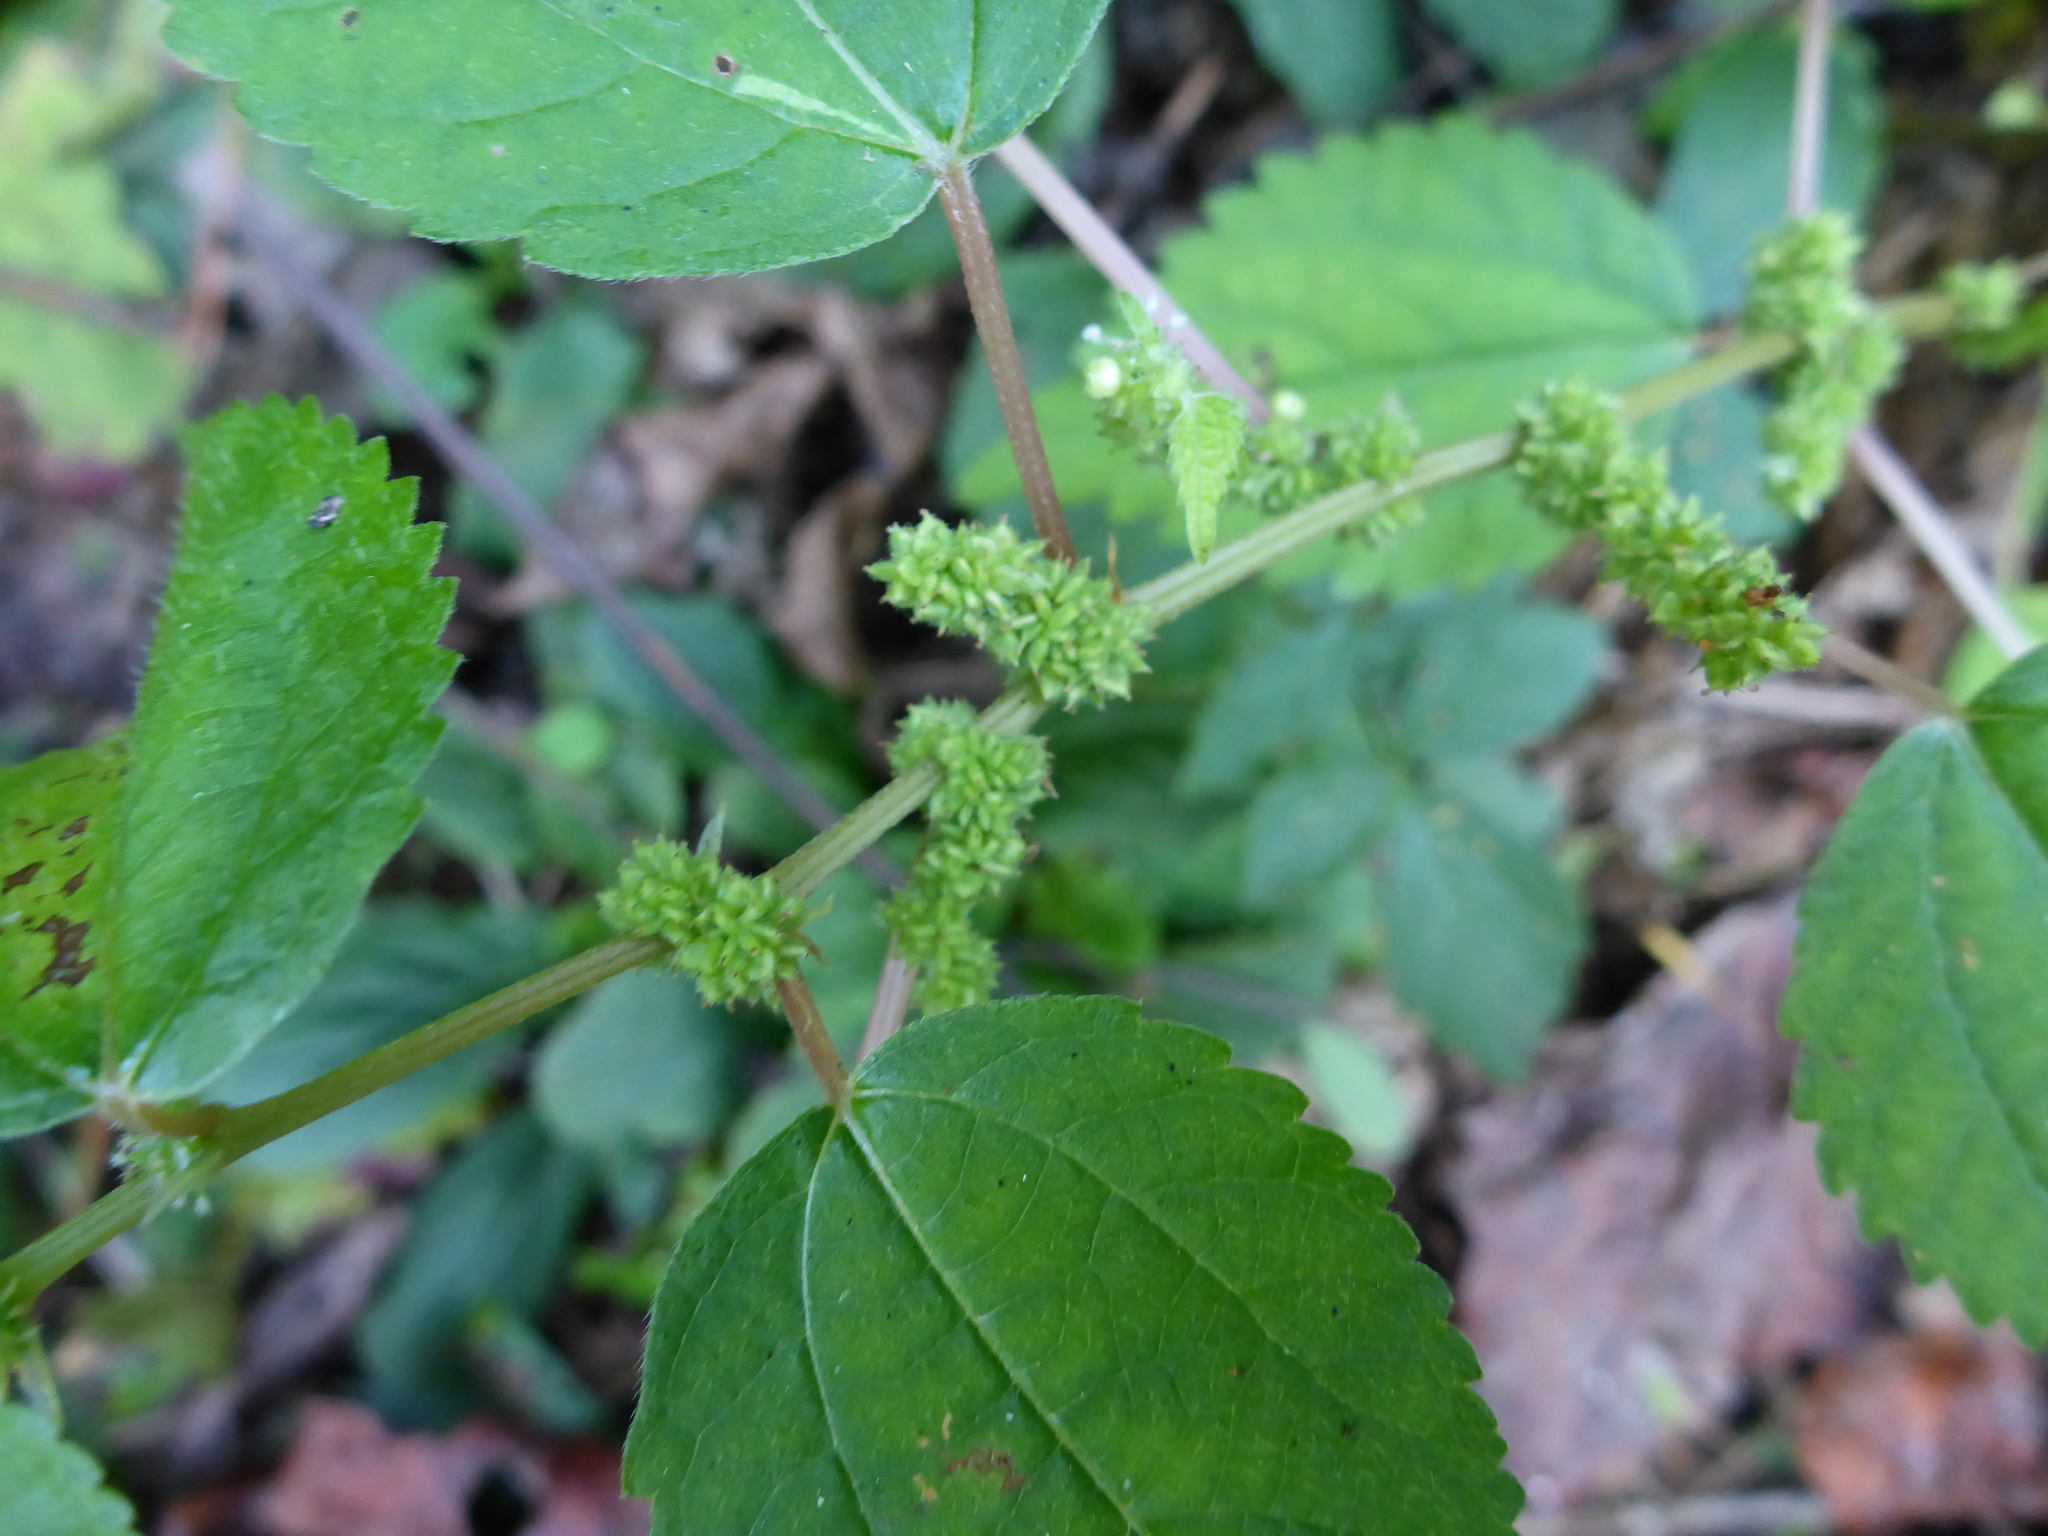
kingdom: Plantae
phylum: Tracheophyta
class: Magnoliopsida
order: Rosales
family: Urticaceae
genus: Boehmeria
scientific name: Boehmeria cylindrica
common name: Bog-hemp
